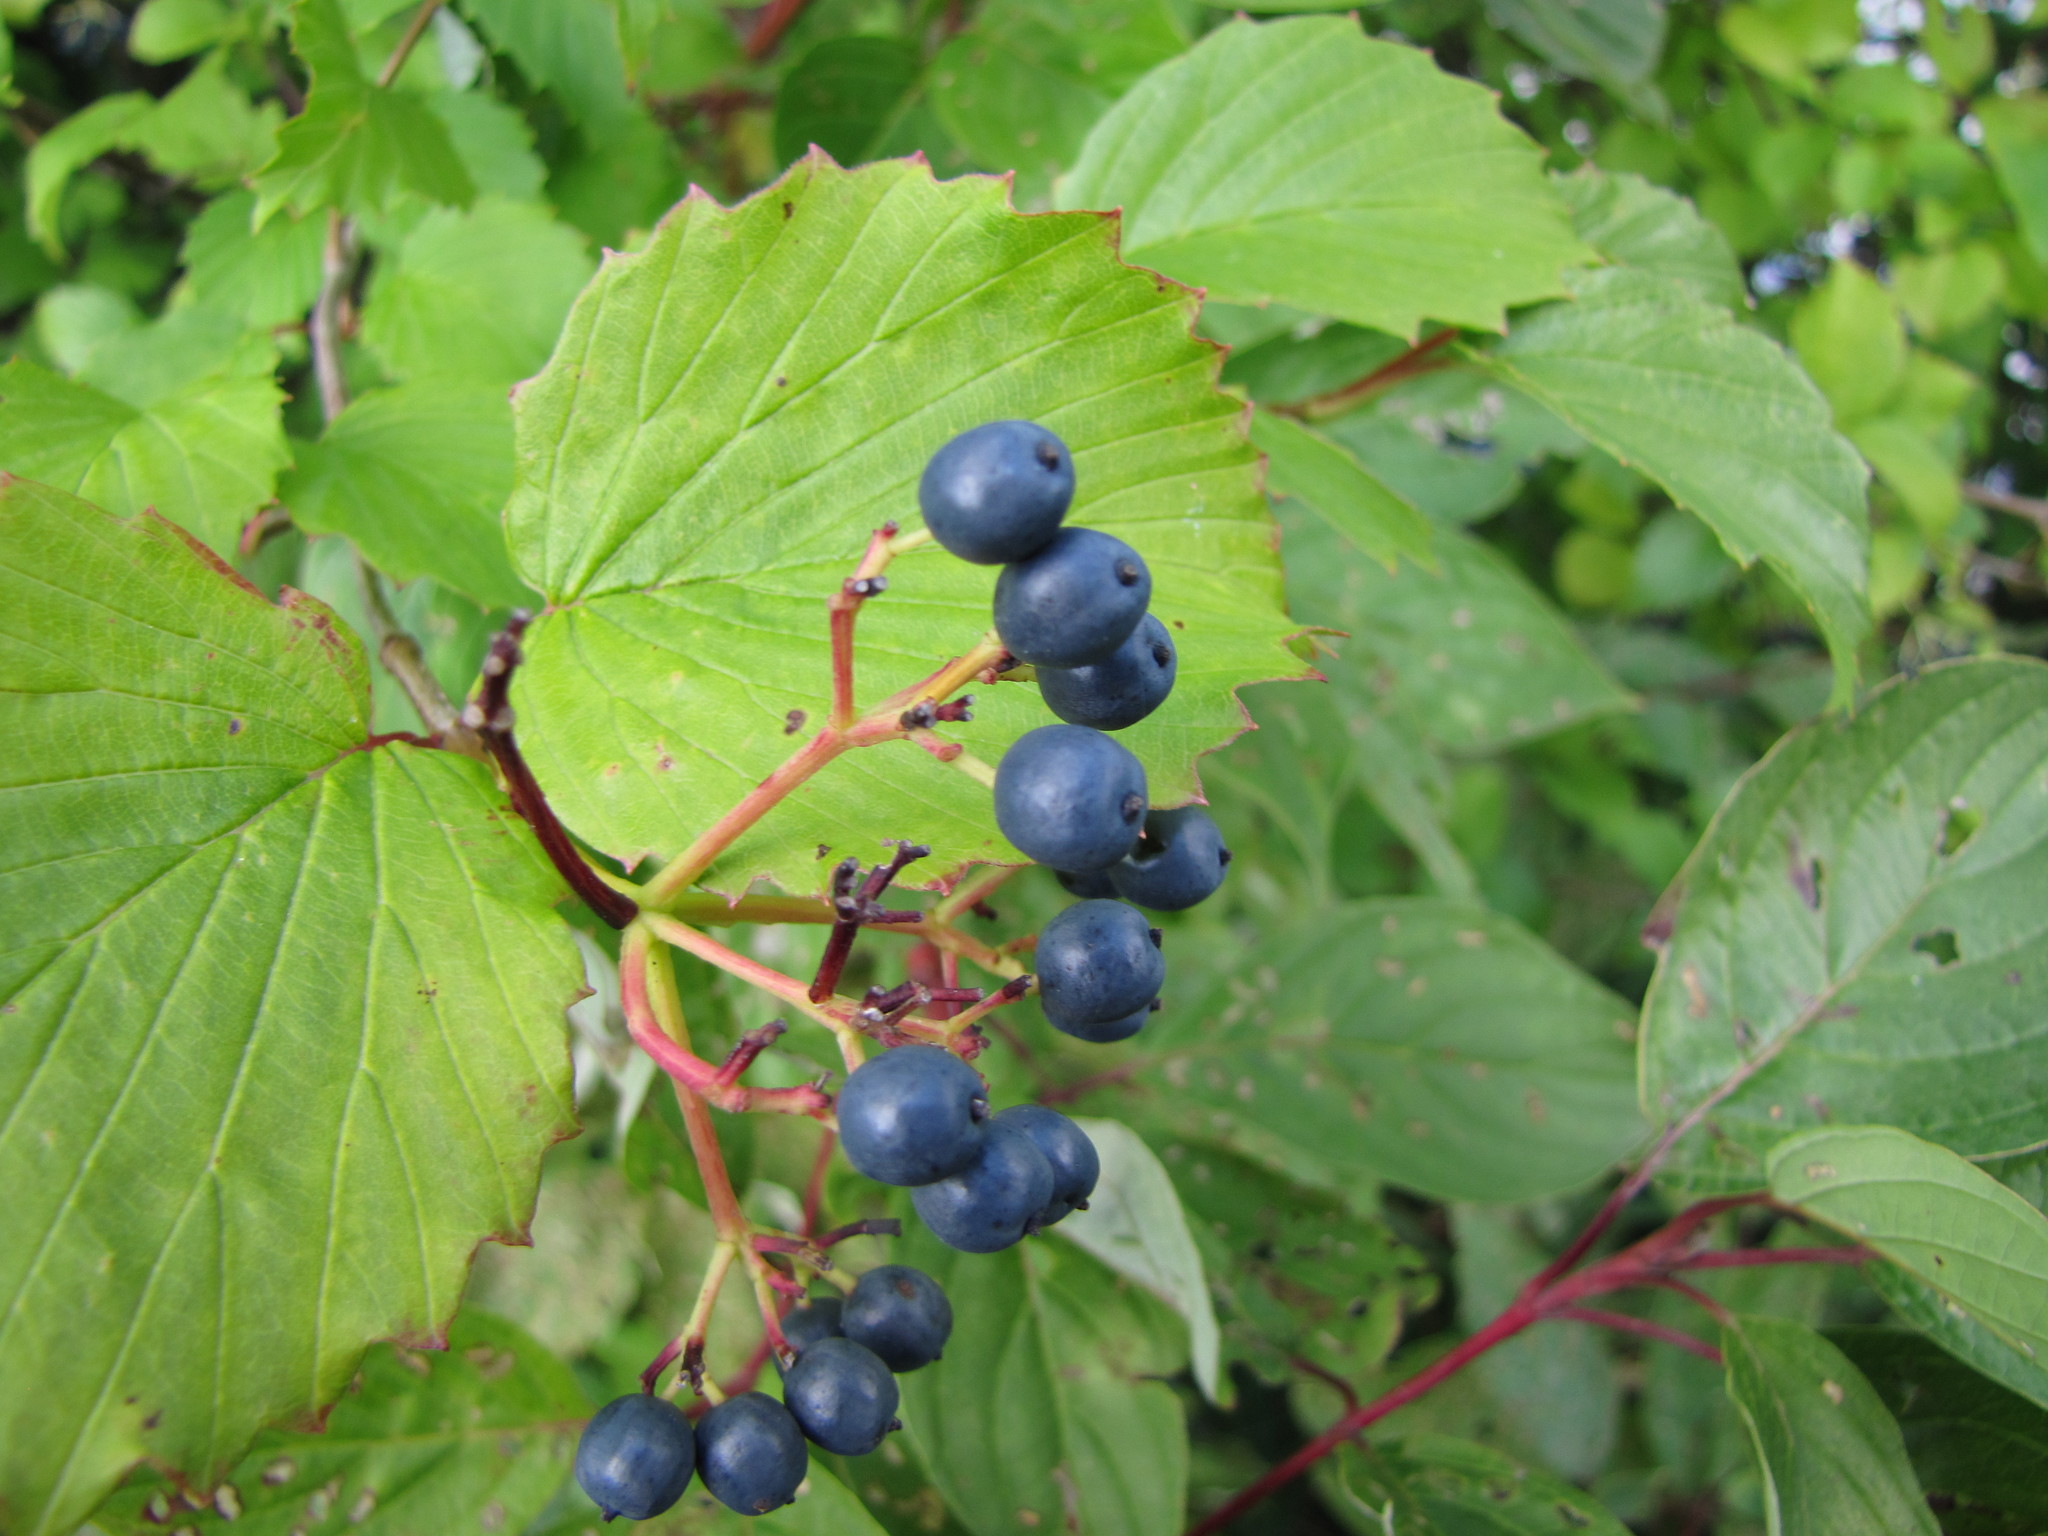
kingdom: Plantae
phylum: Tracheophyta
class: Magnoliopsida
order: Dipsacales
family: Viburnaceae
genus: Viburnum
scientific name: Viburnum recognitum
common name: Northern arrow-wood
